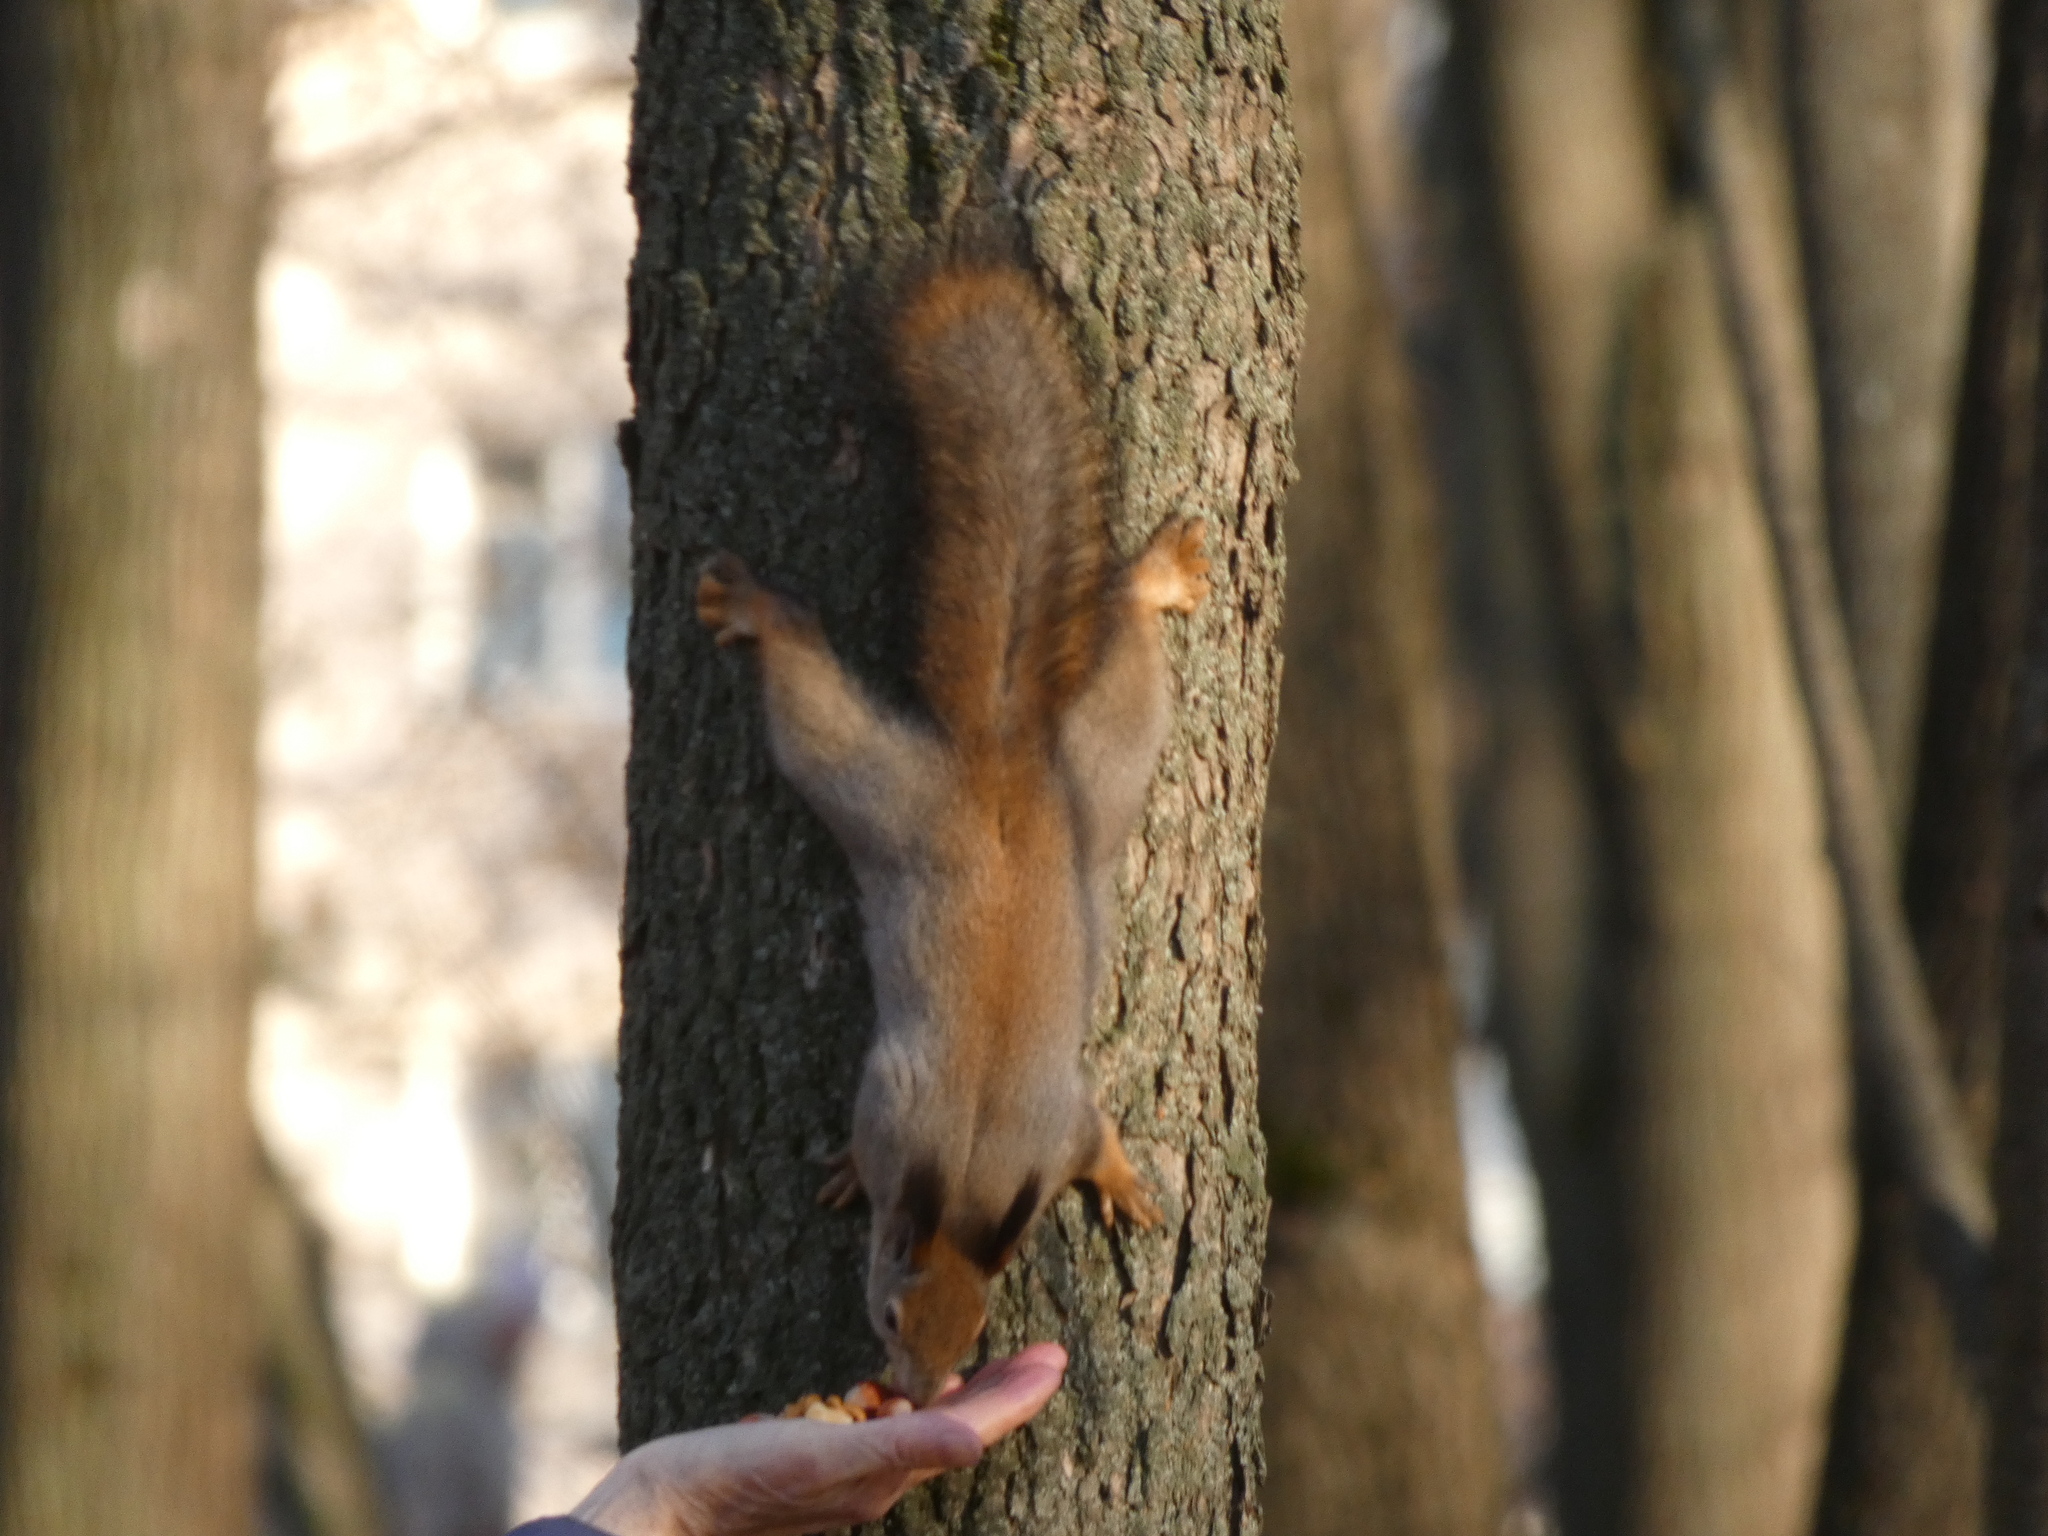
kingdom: Animalia
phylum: Chordata
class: Mammalia
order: Rodentia
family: Sciuridae
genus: Sciurus
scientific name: Sciurus vulgaris
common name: Eurasian red squirrel
